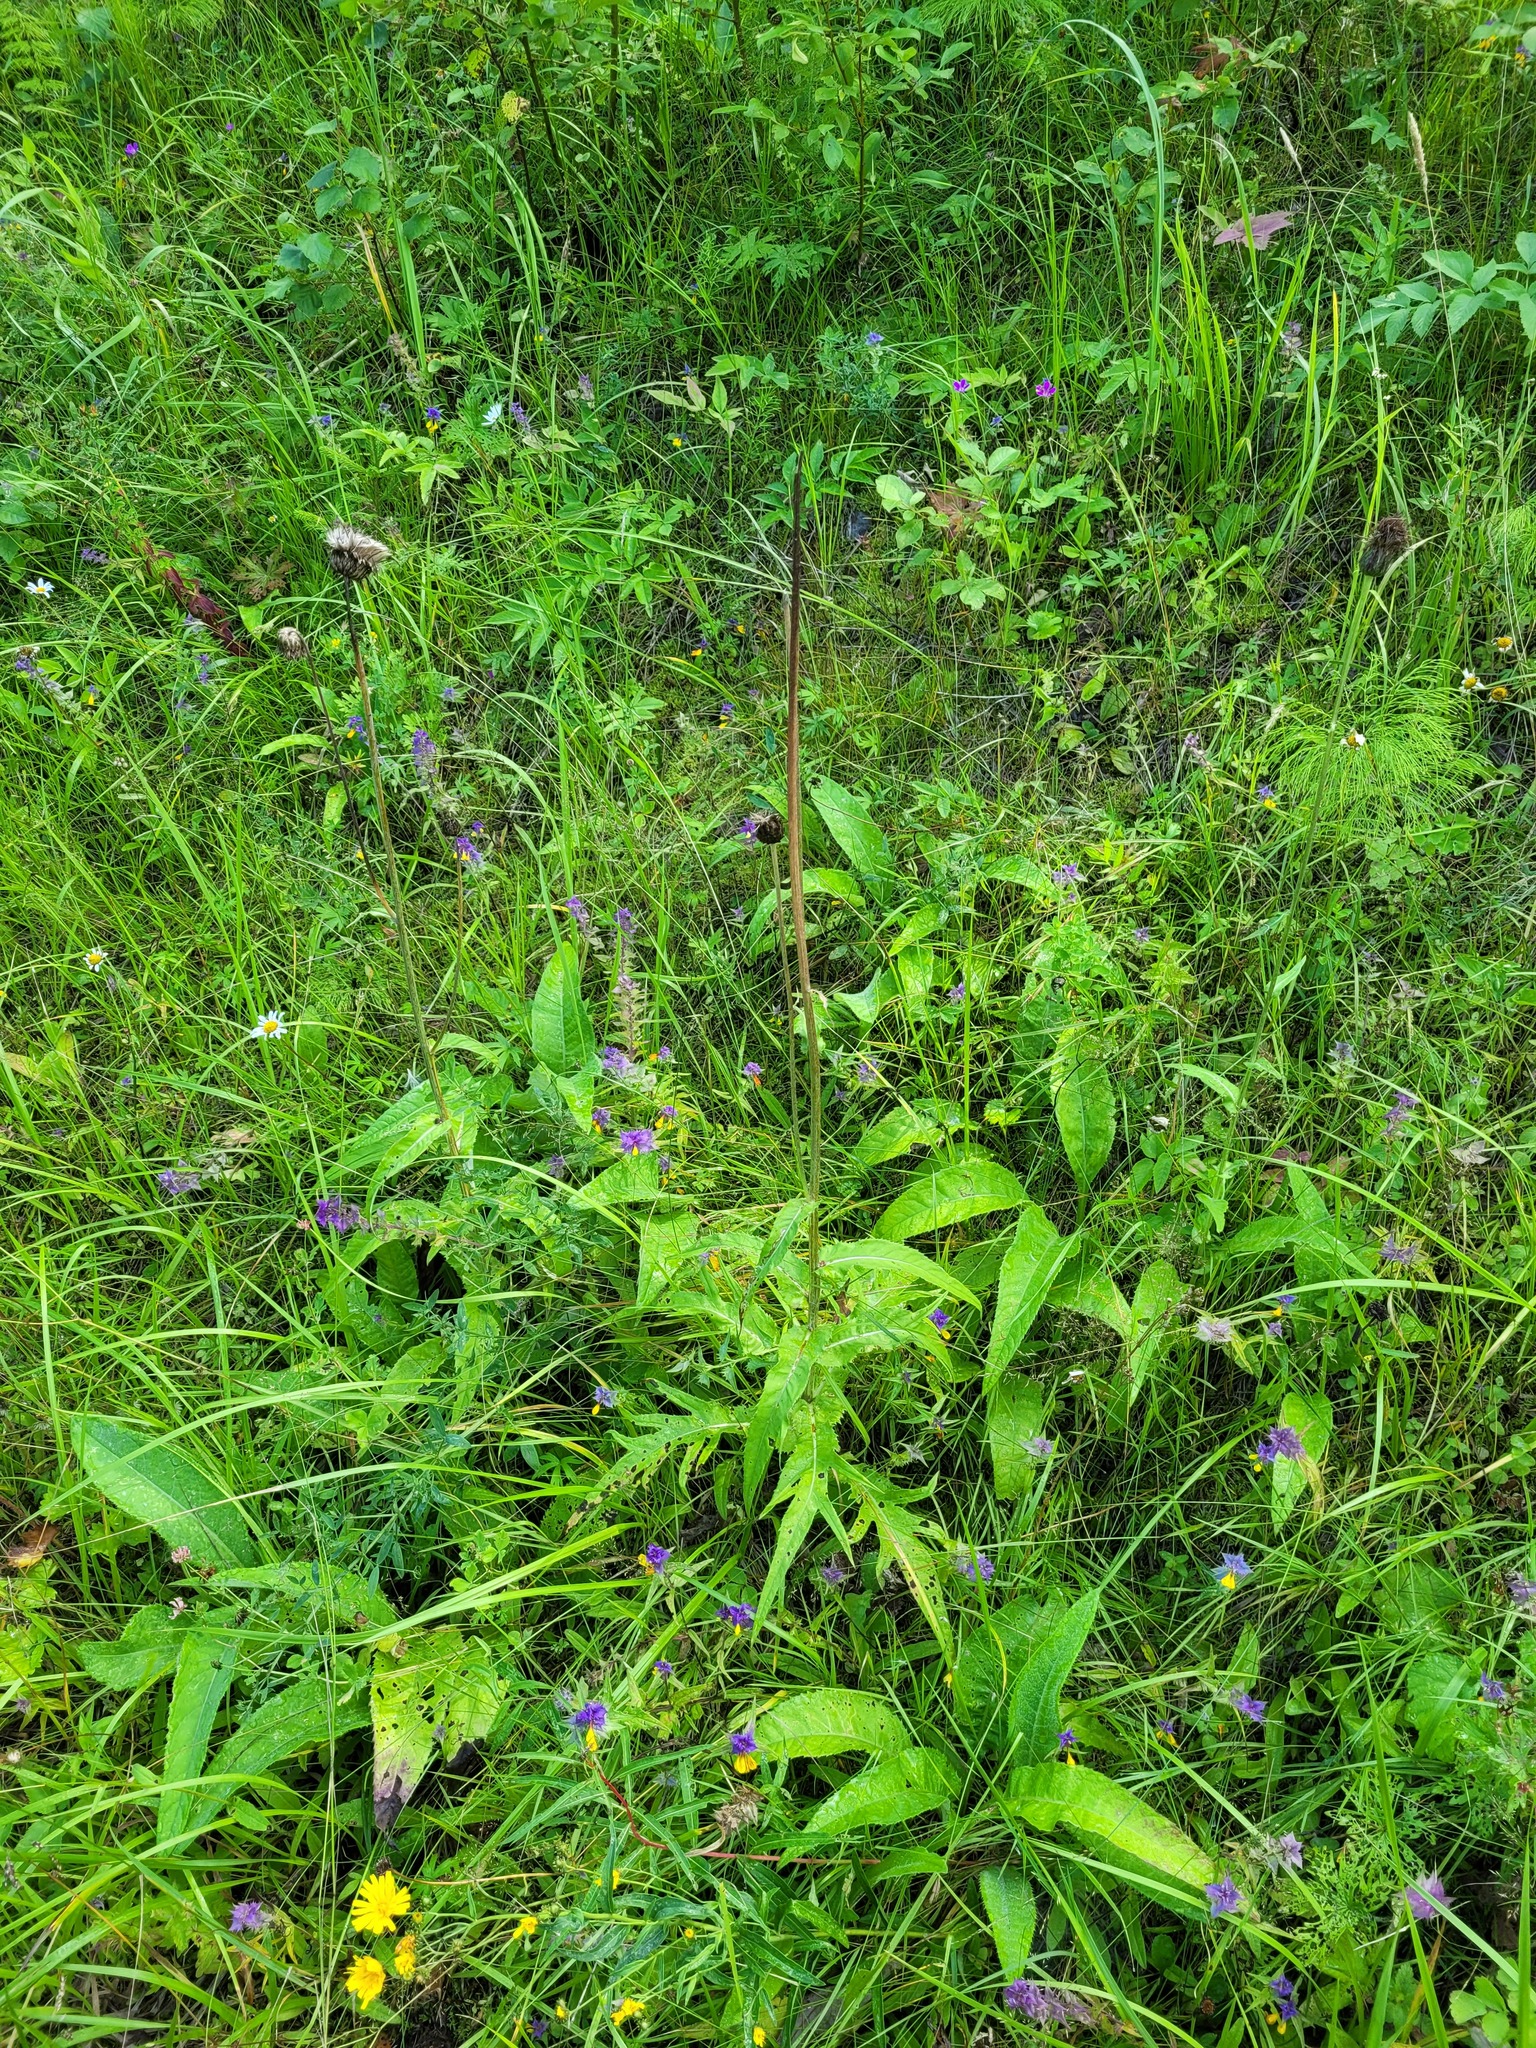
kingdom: Plantae
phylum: Tracheophyta
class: Magnoliopsida
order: Asterales
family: Asteraceae
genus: Cirsium
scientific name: Cirsium heterophyllum
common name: Melancholy thistle
